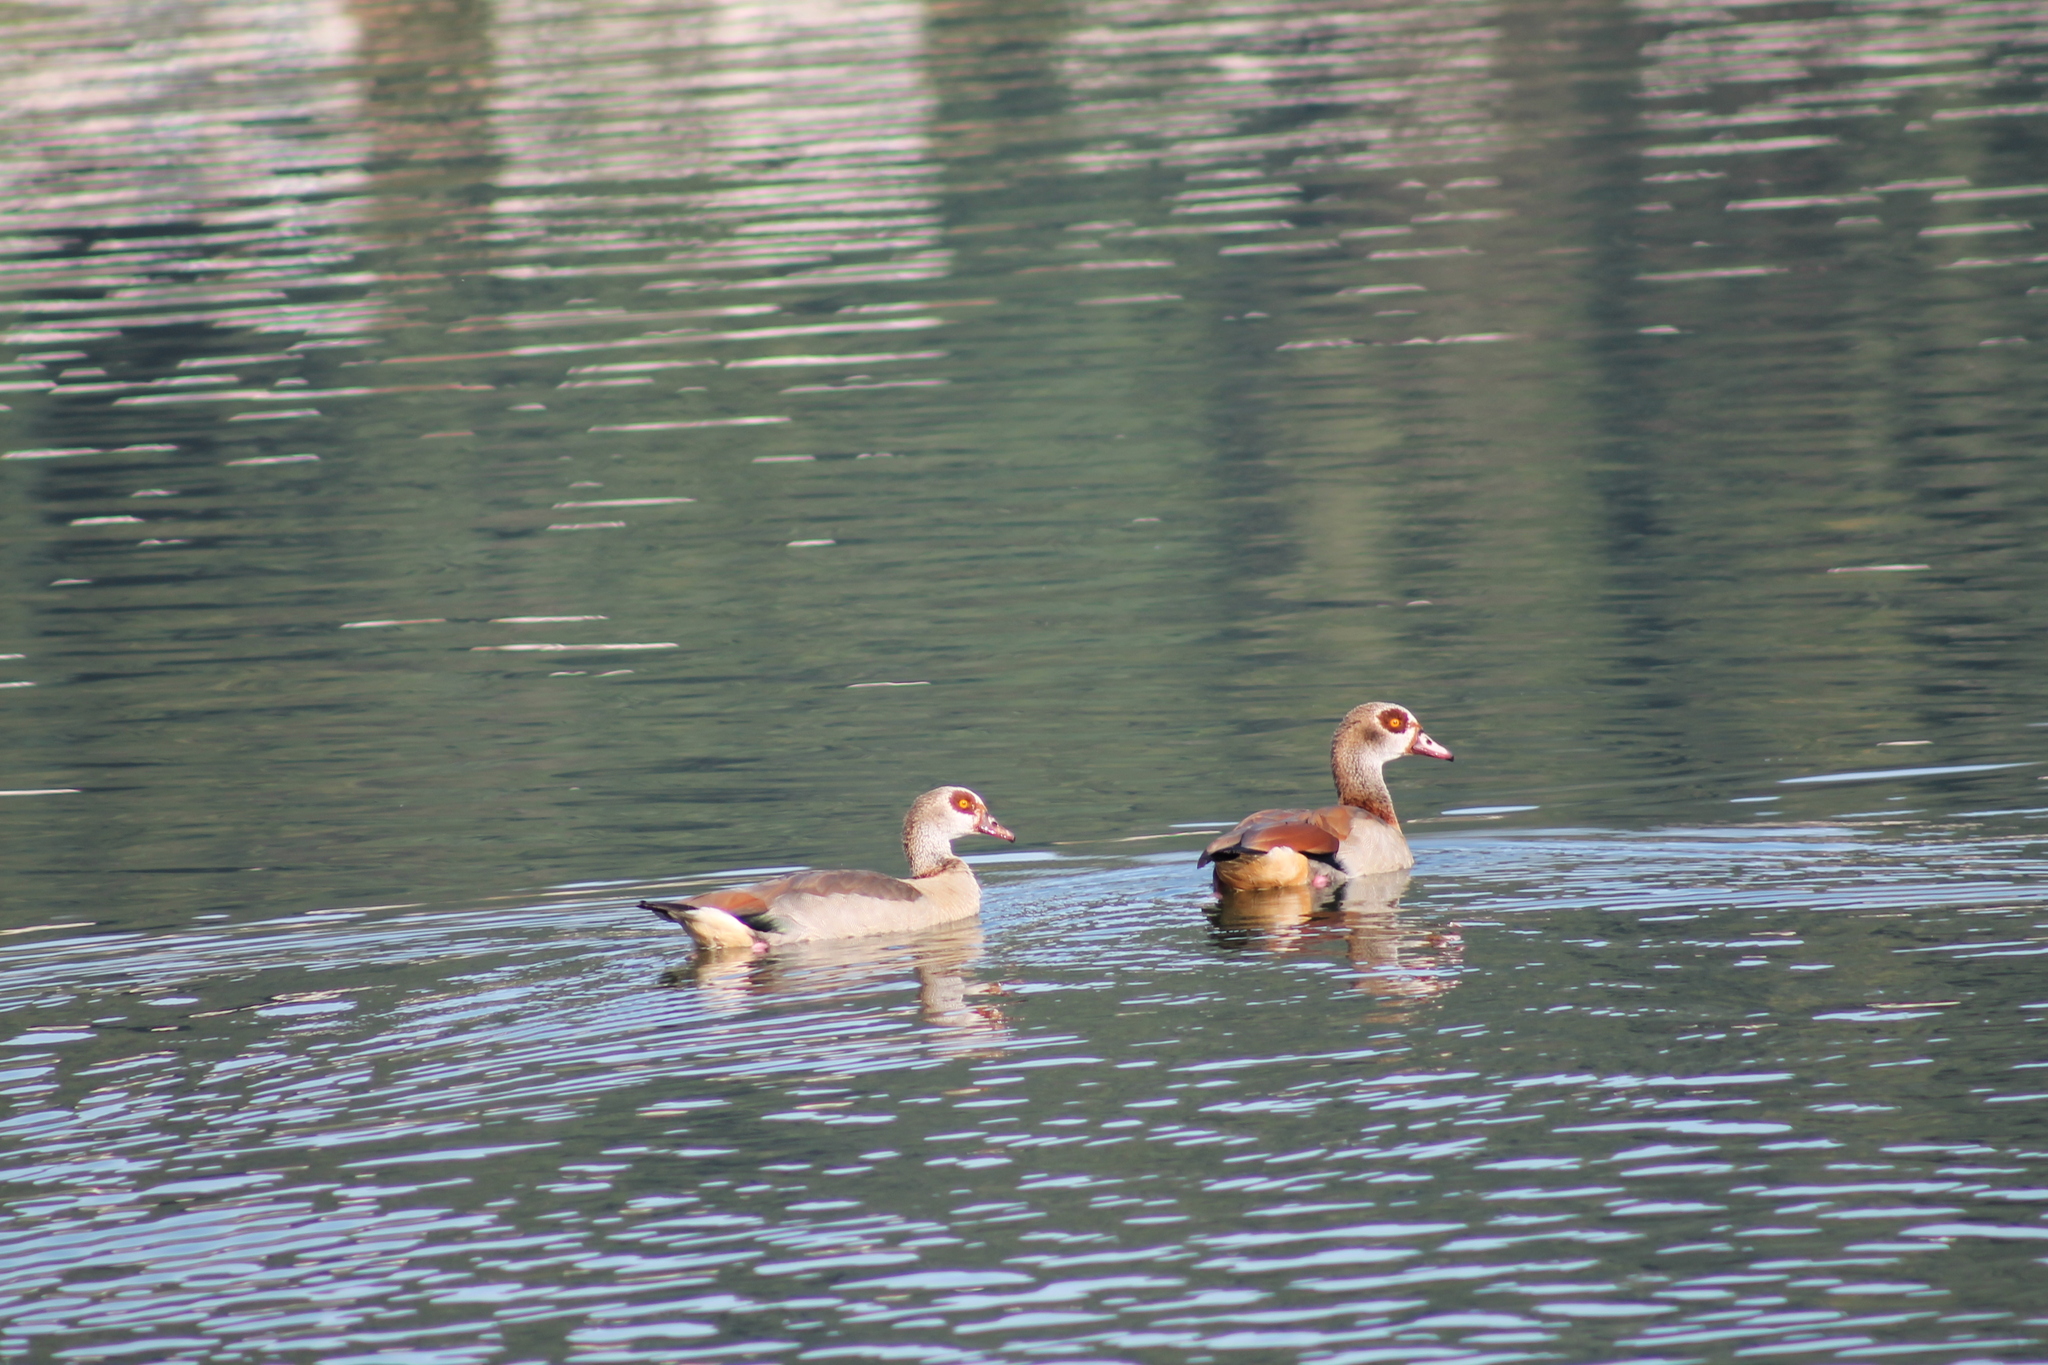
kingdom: Animalia
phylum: Chordata
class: Aves
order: Anseriformes
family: Anatidae
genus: Alopochen
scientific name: Alopochen aegyptiaca
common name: Egyptian goose
